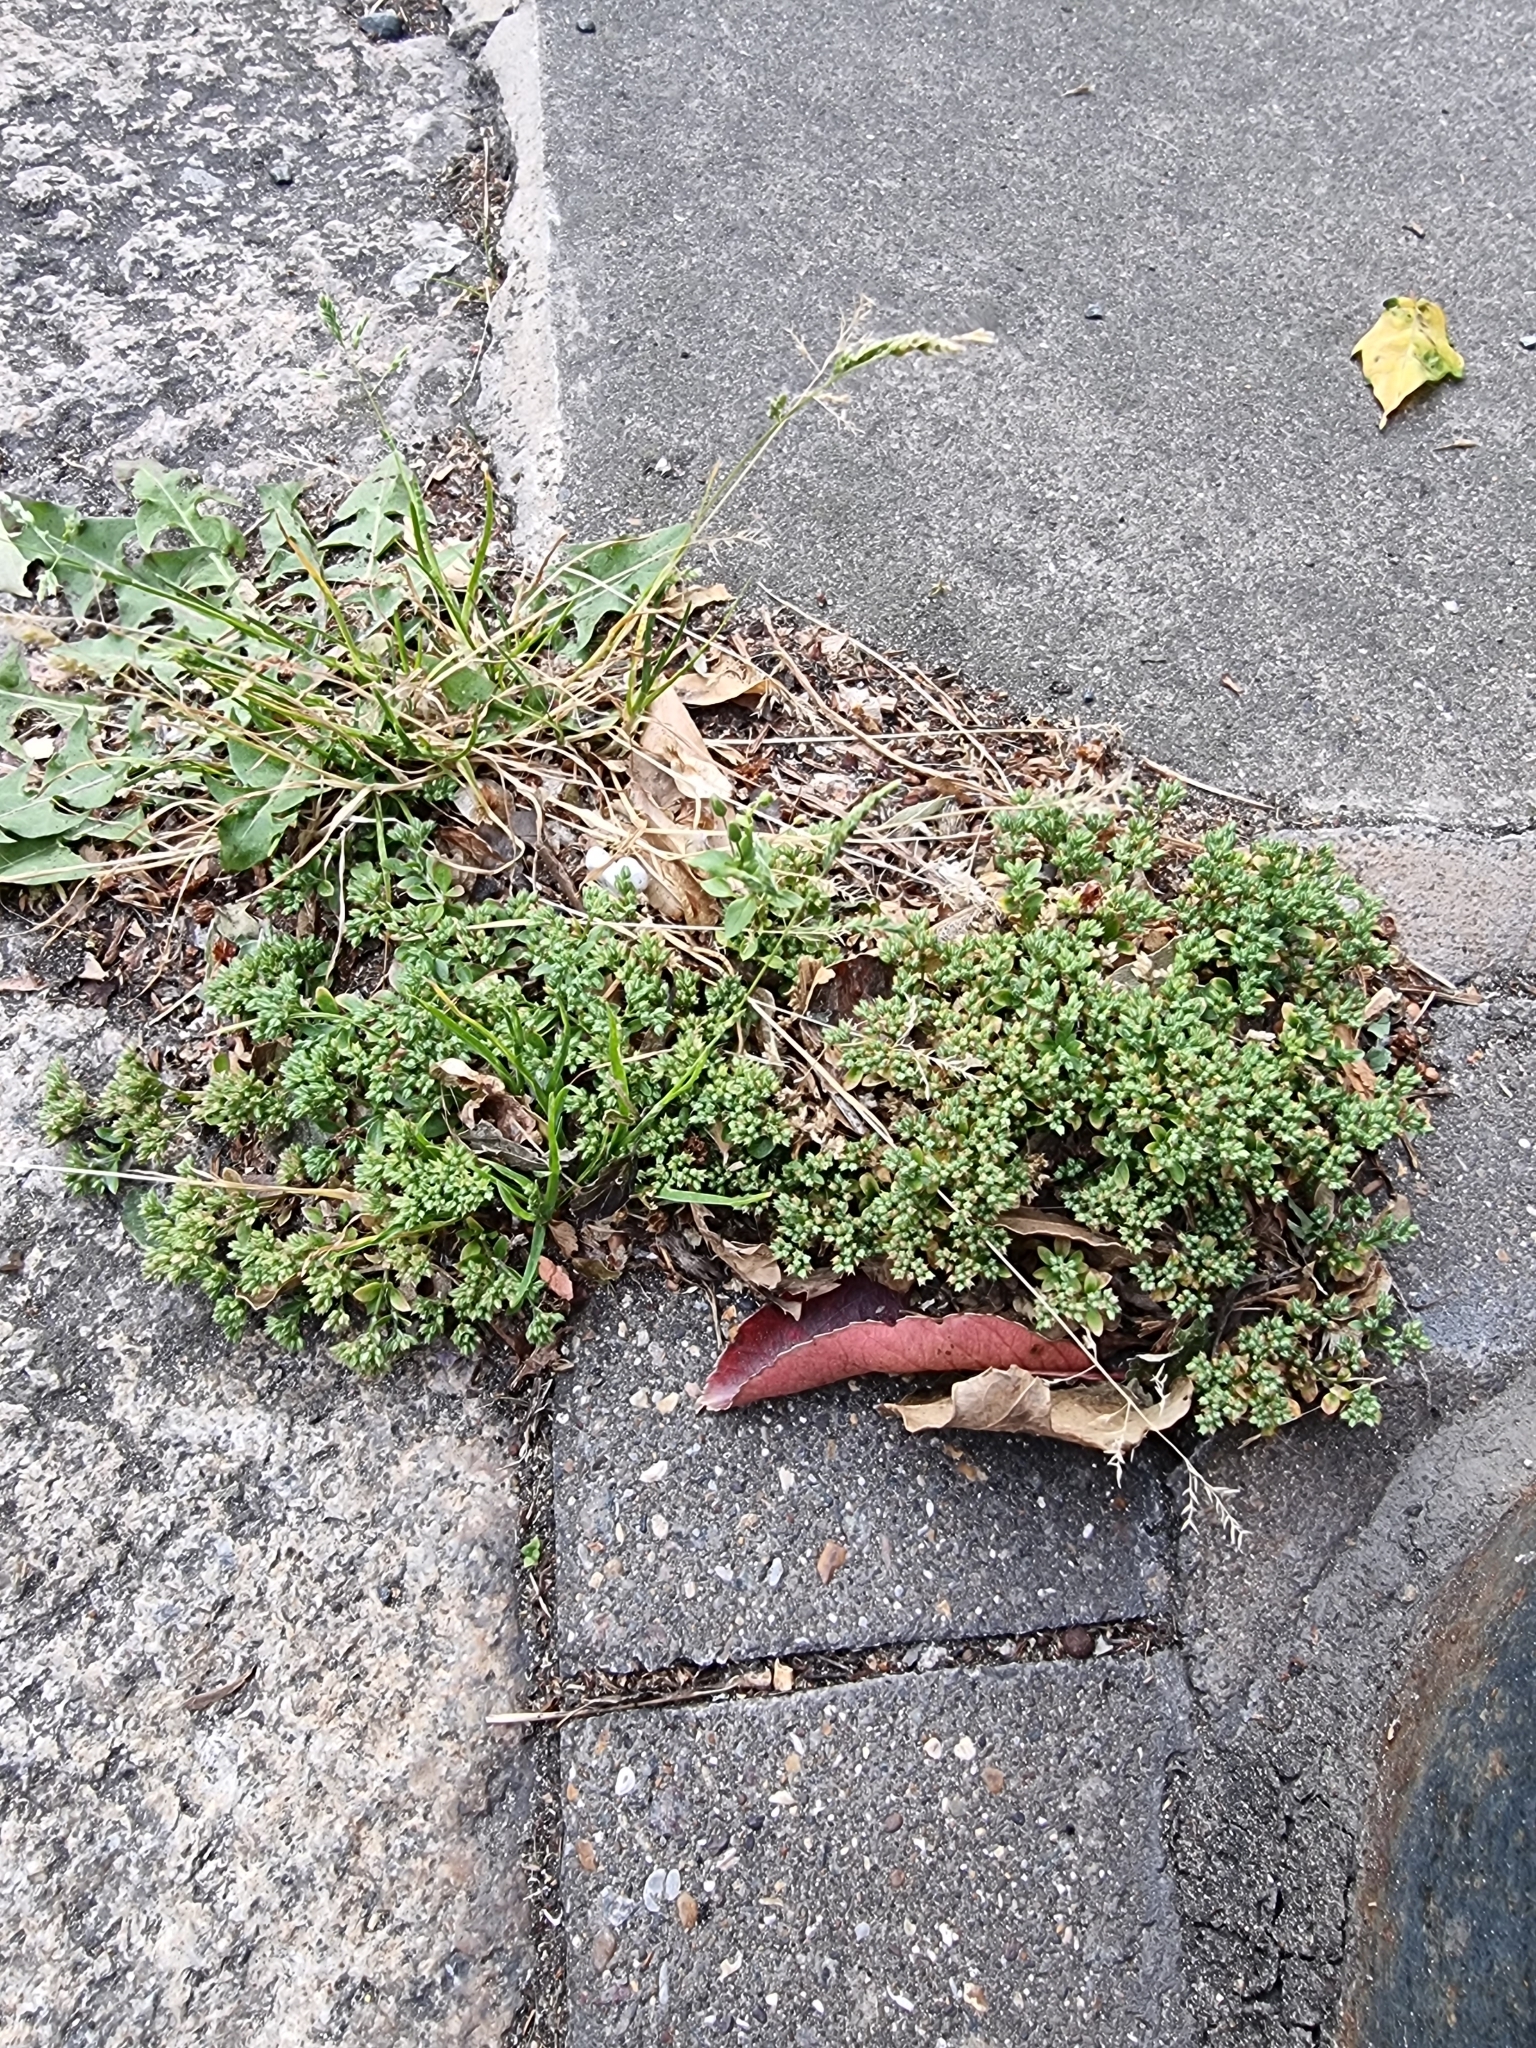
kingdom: Plantae
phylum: Tracheophyta
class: Magnoliopsida
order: Caryophyllales
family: Caryophyllaceae
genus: Polycarpon
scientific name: Polycarpon tetraphyllum
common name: Four-leaved all-seed
